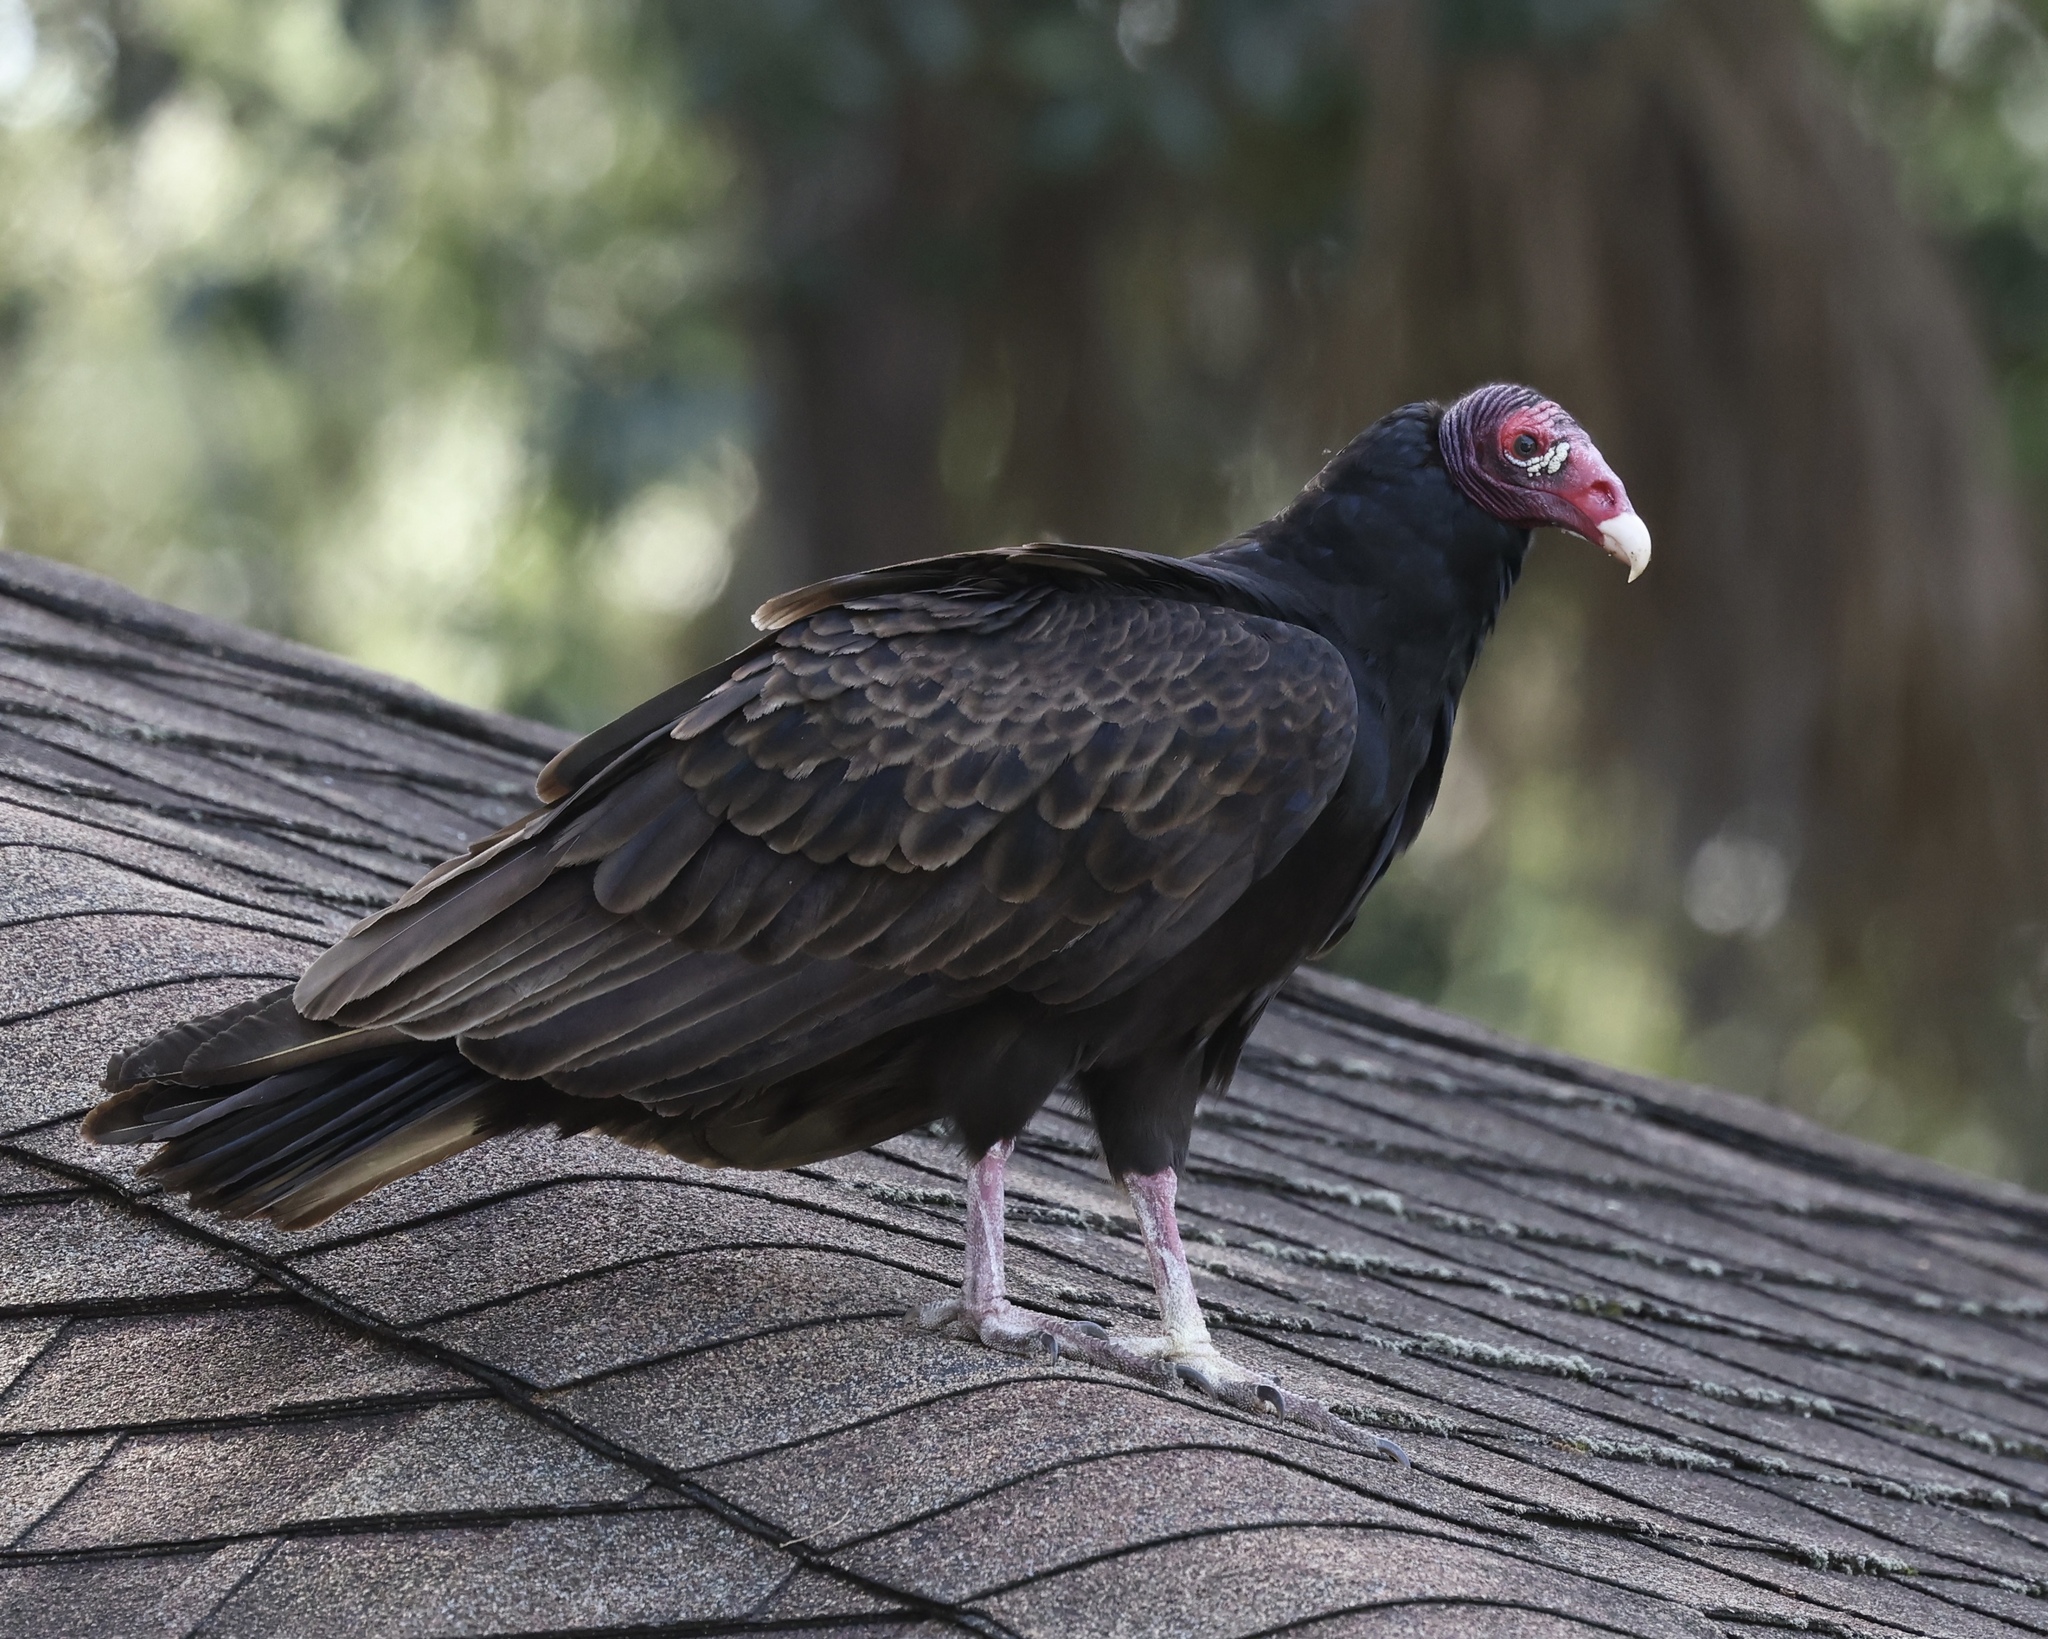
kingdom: Animalia
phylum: Chordata
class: Aves
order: Accipitriformes
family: Cathartidae
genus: Cathartes
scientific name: Cathartes aura
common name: Turkey vulture
